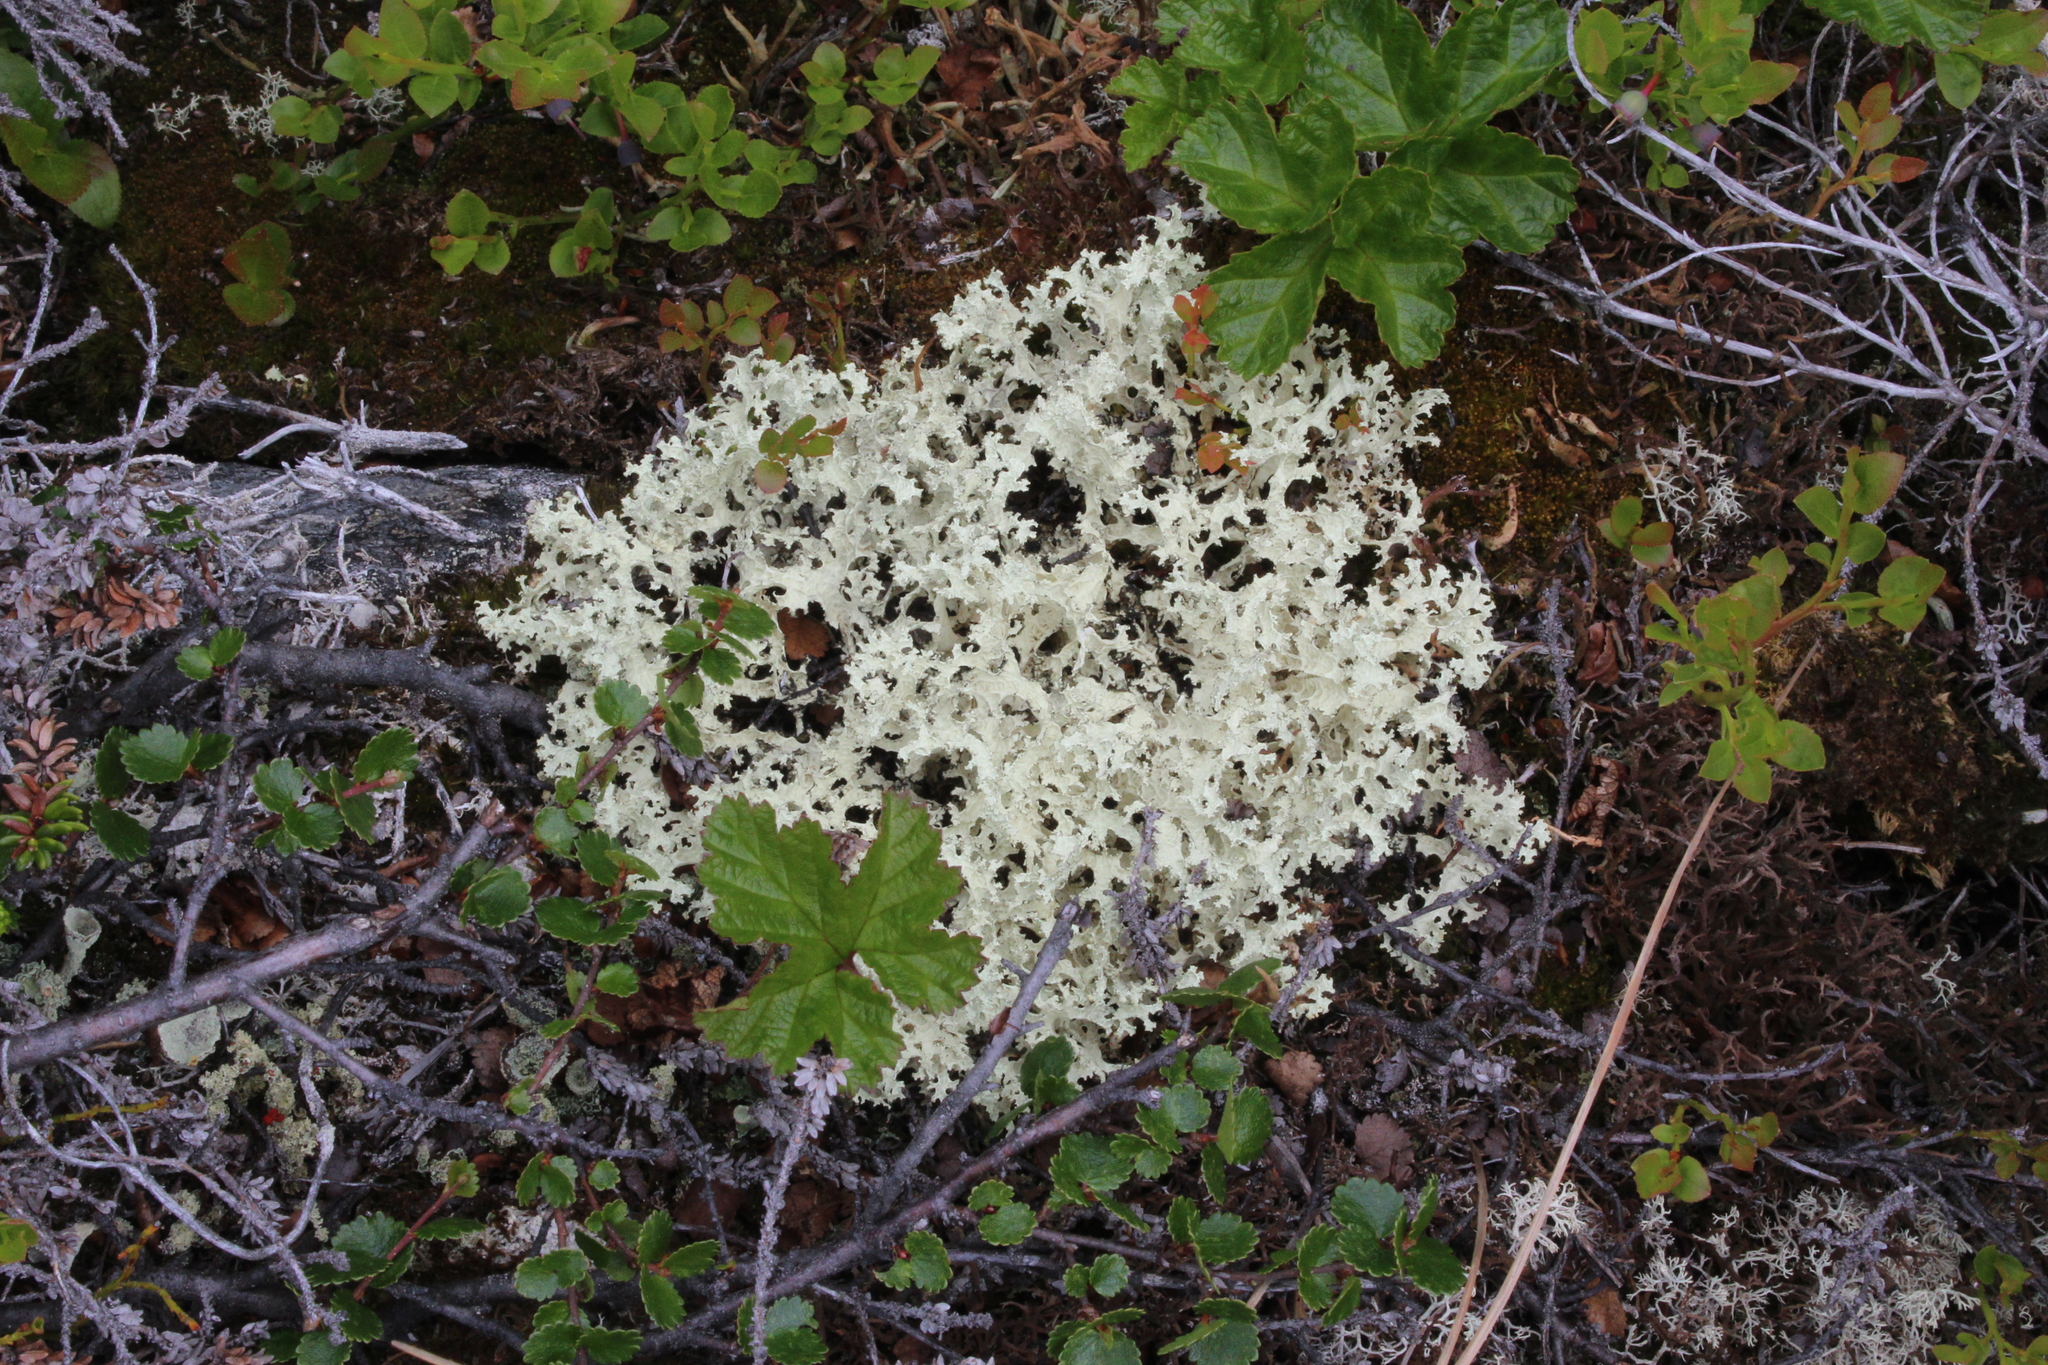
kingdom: Fungi
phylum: Ascomycota
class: Lecanoromycetes
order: Lecanorales
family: Parmeliaceae
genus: Nephromopsis
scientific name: Nephromopsis nivalis
